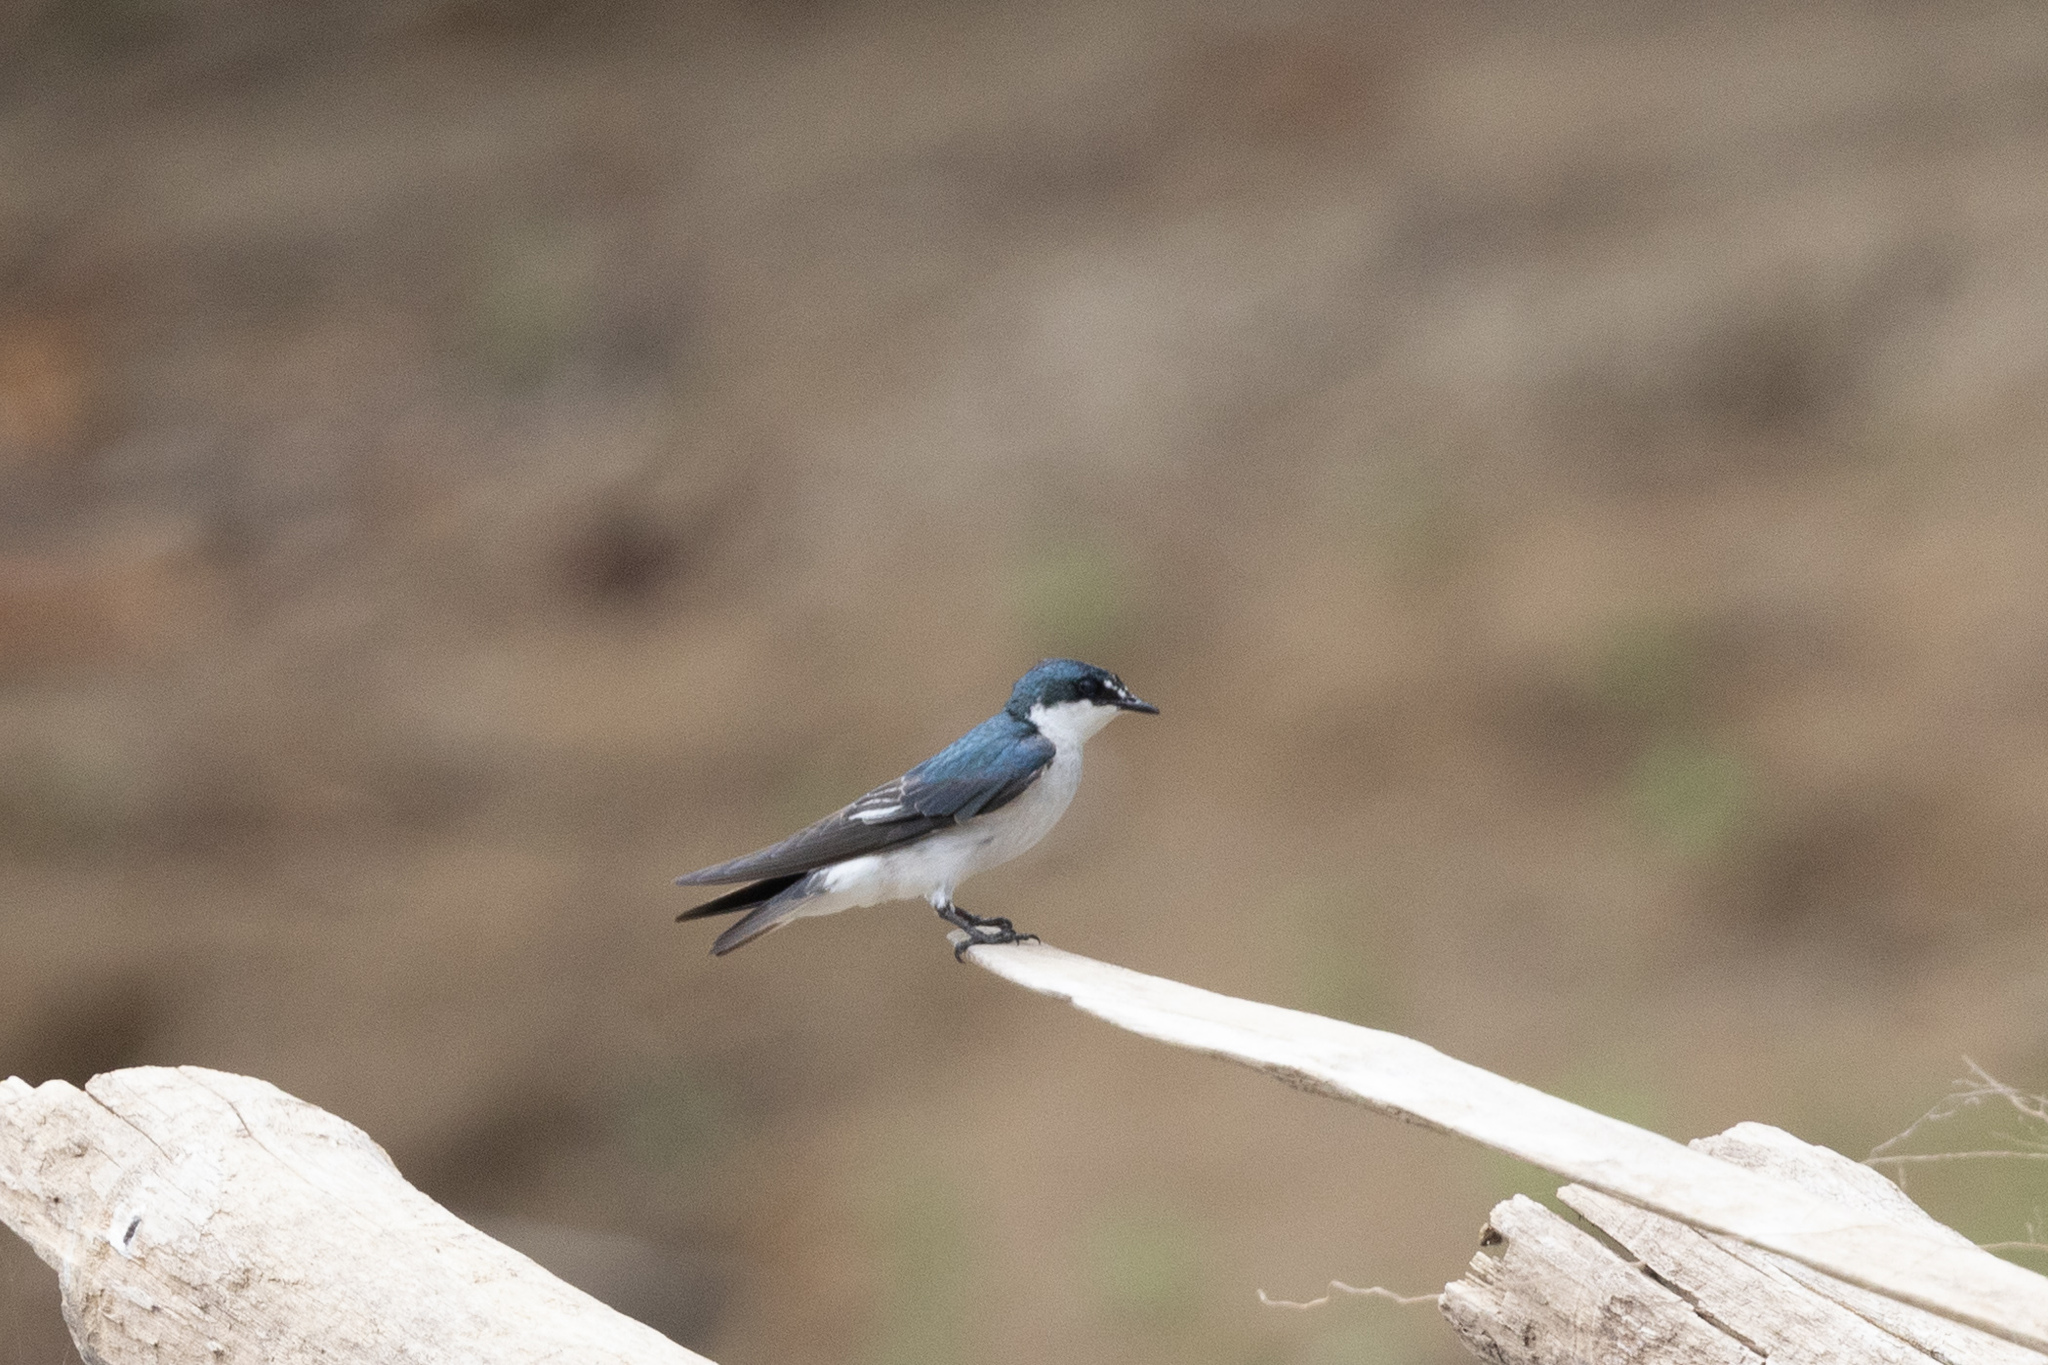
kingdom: Animalia
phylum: Chordata
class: Aves
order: Passeriformes
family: Hirundinidae
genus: Tachycineta
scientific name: Tachycineta albilinea
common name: Mangrove swallow
